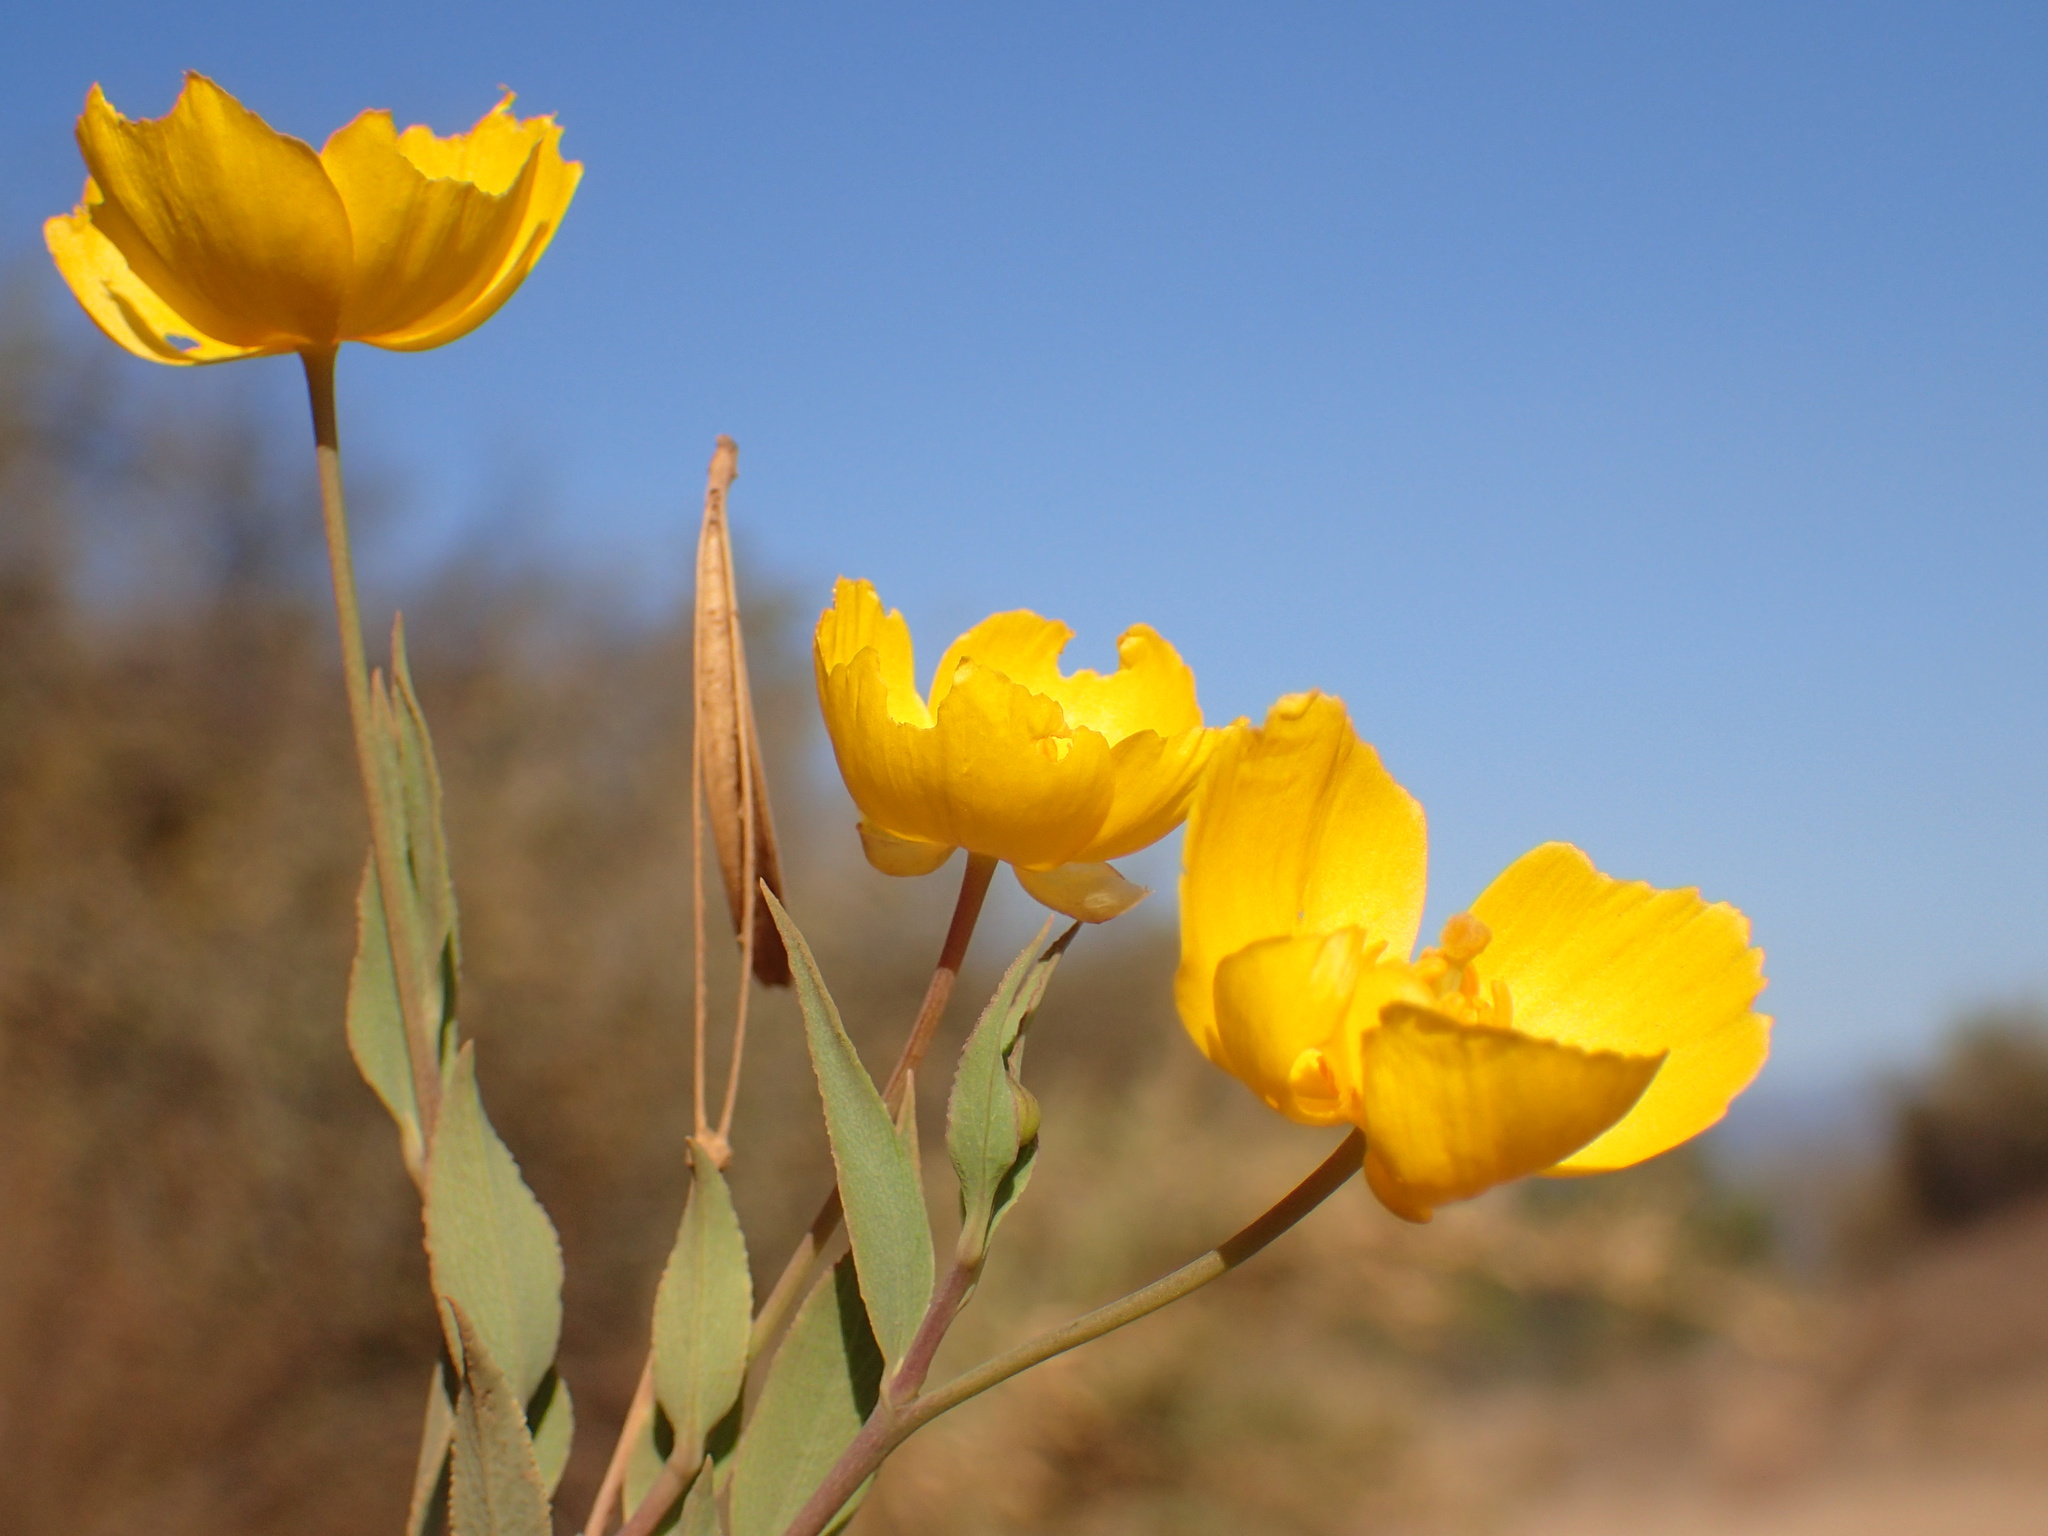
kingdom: Plantae
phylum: Tracheophyta
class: Magnoliopsida
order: Ranunculales
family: Papaveraceae
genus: Dendromecon
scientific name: Dendromecon rigida
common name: Tree poppy
